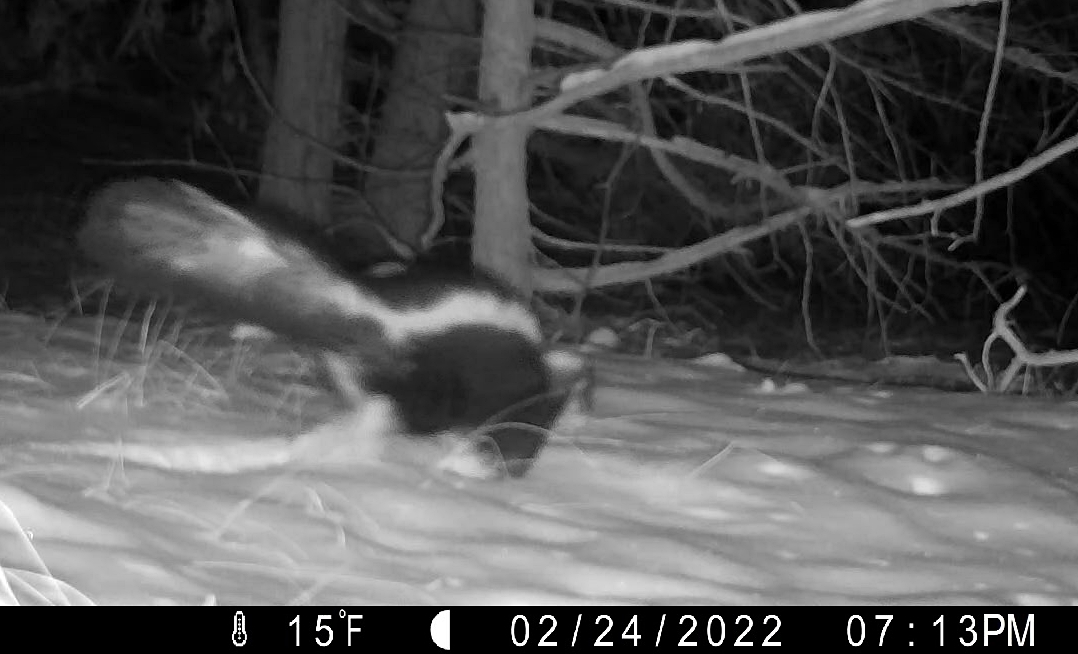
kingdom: Animalia
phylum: Chordata
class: Mammalia
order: Carnivora
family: Mephitidae
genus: Mephitis
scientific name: Mephitis mephitis
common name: Striped skunk
